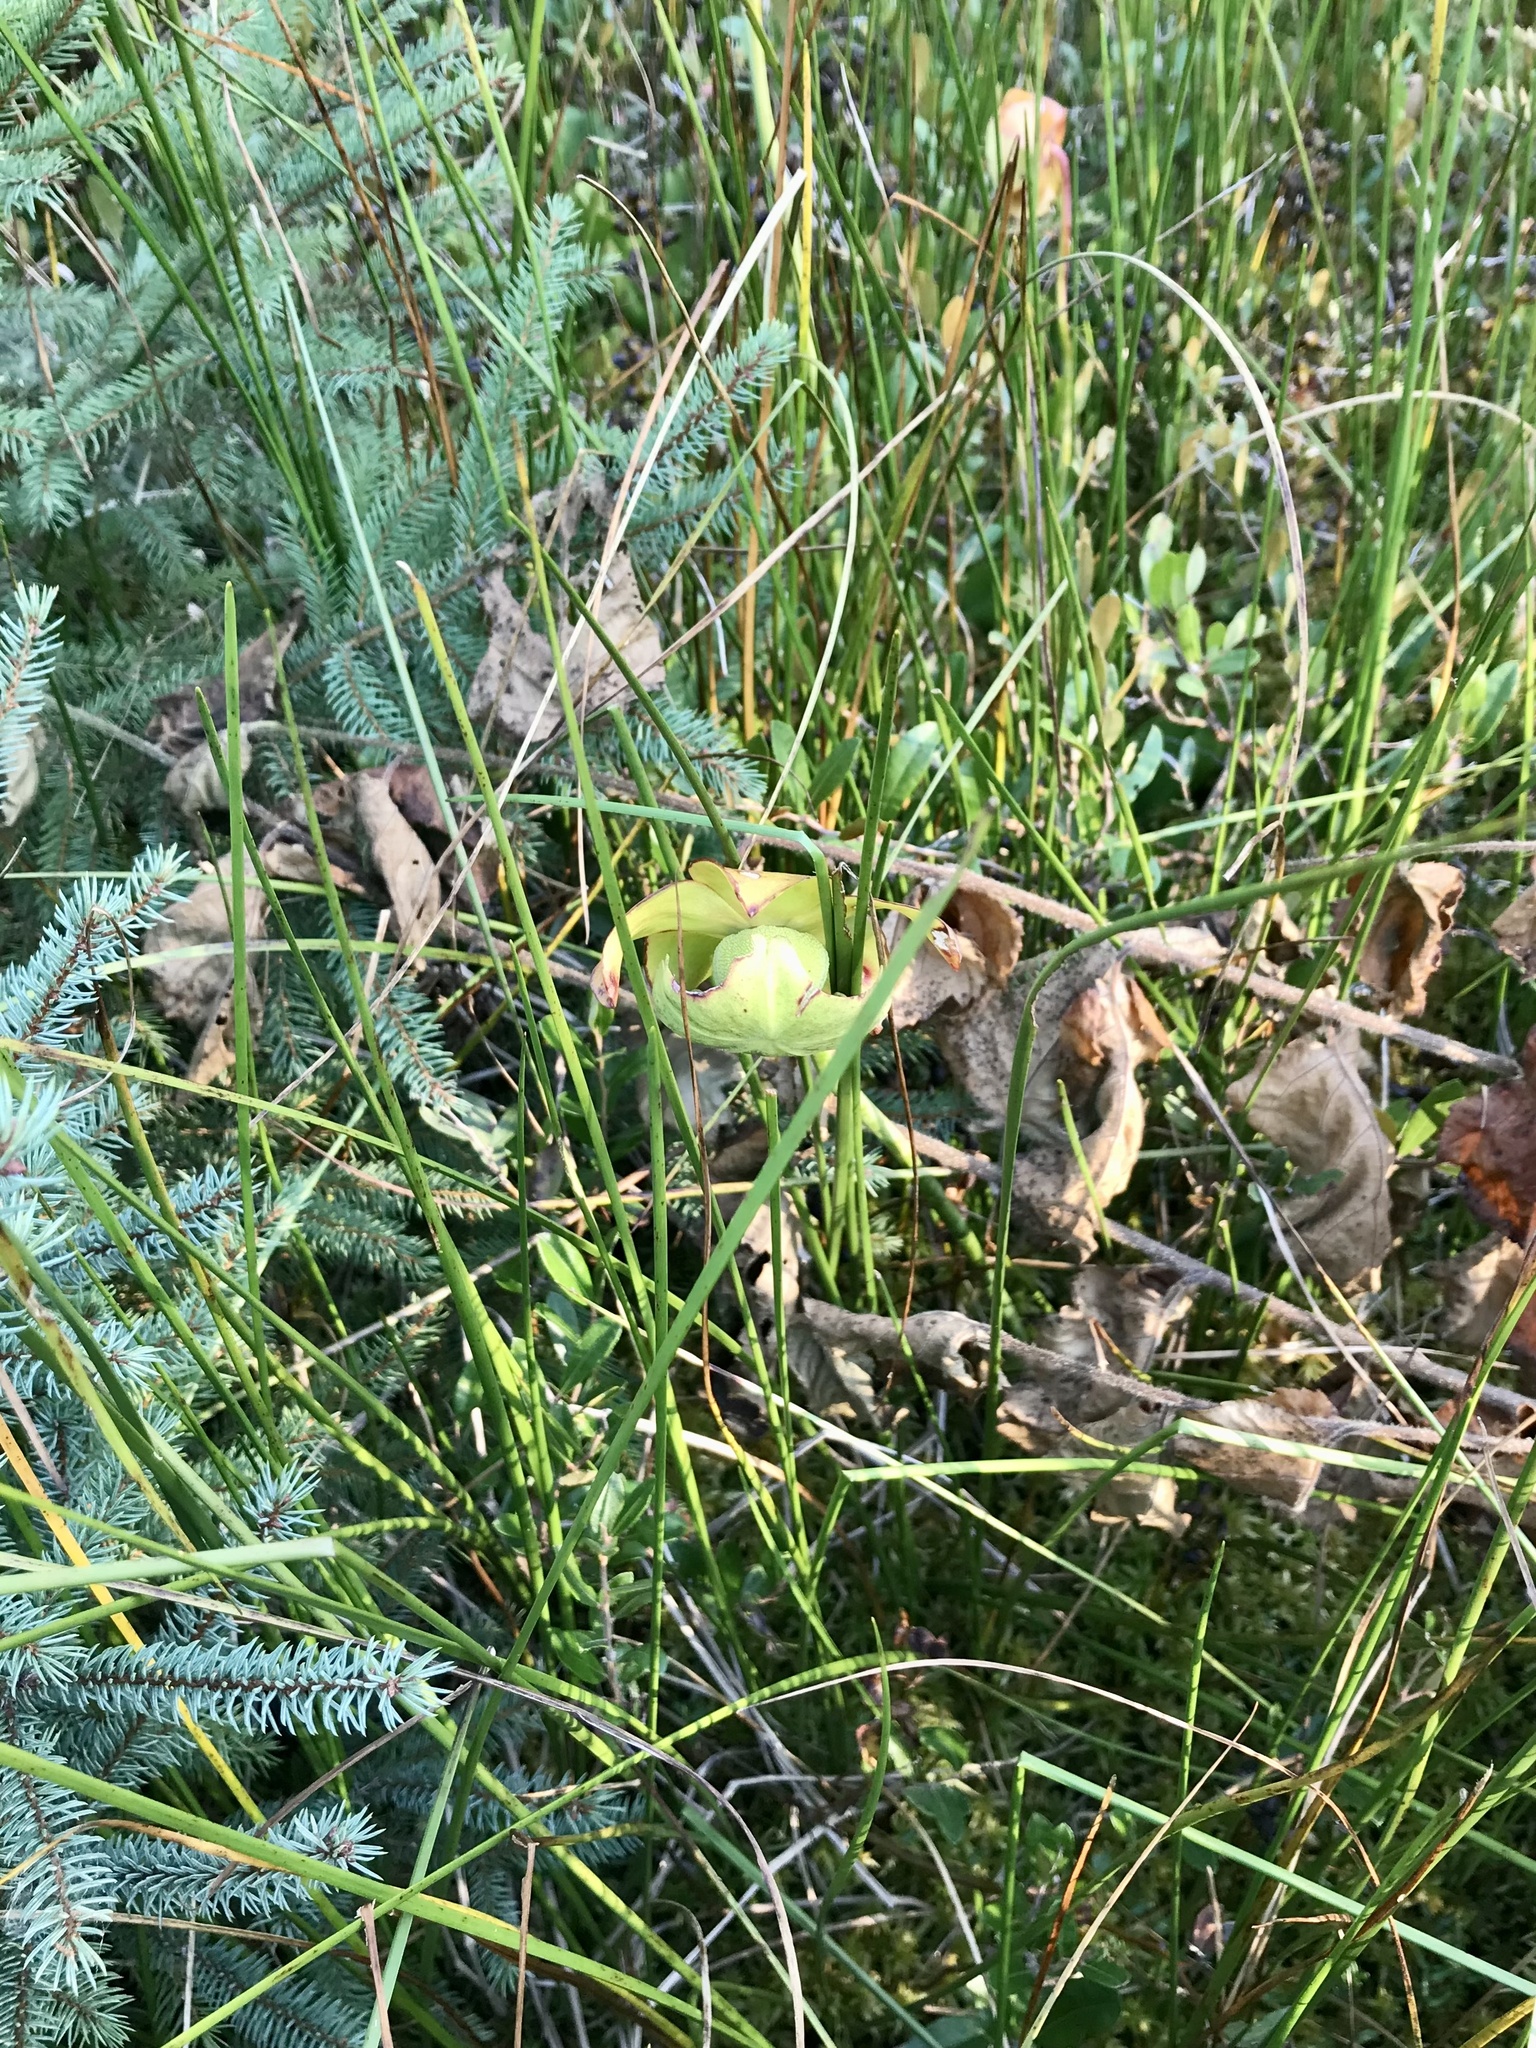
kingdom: Plantae
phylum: Tracheophyta
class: Magnoliopsida
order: Ericales
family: Sarraceniaceae
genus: Sarracenia
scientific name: Sarracenia purpurea
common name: Pitcherplant
